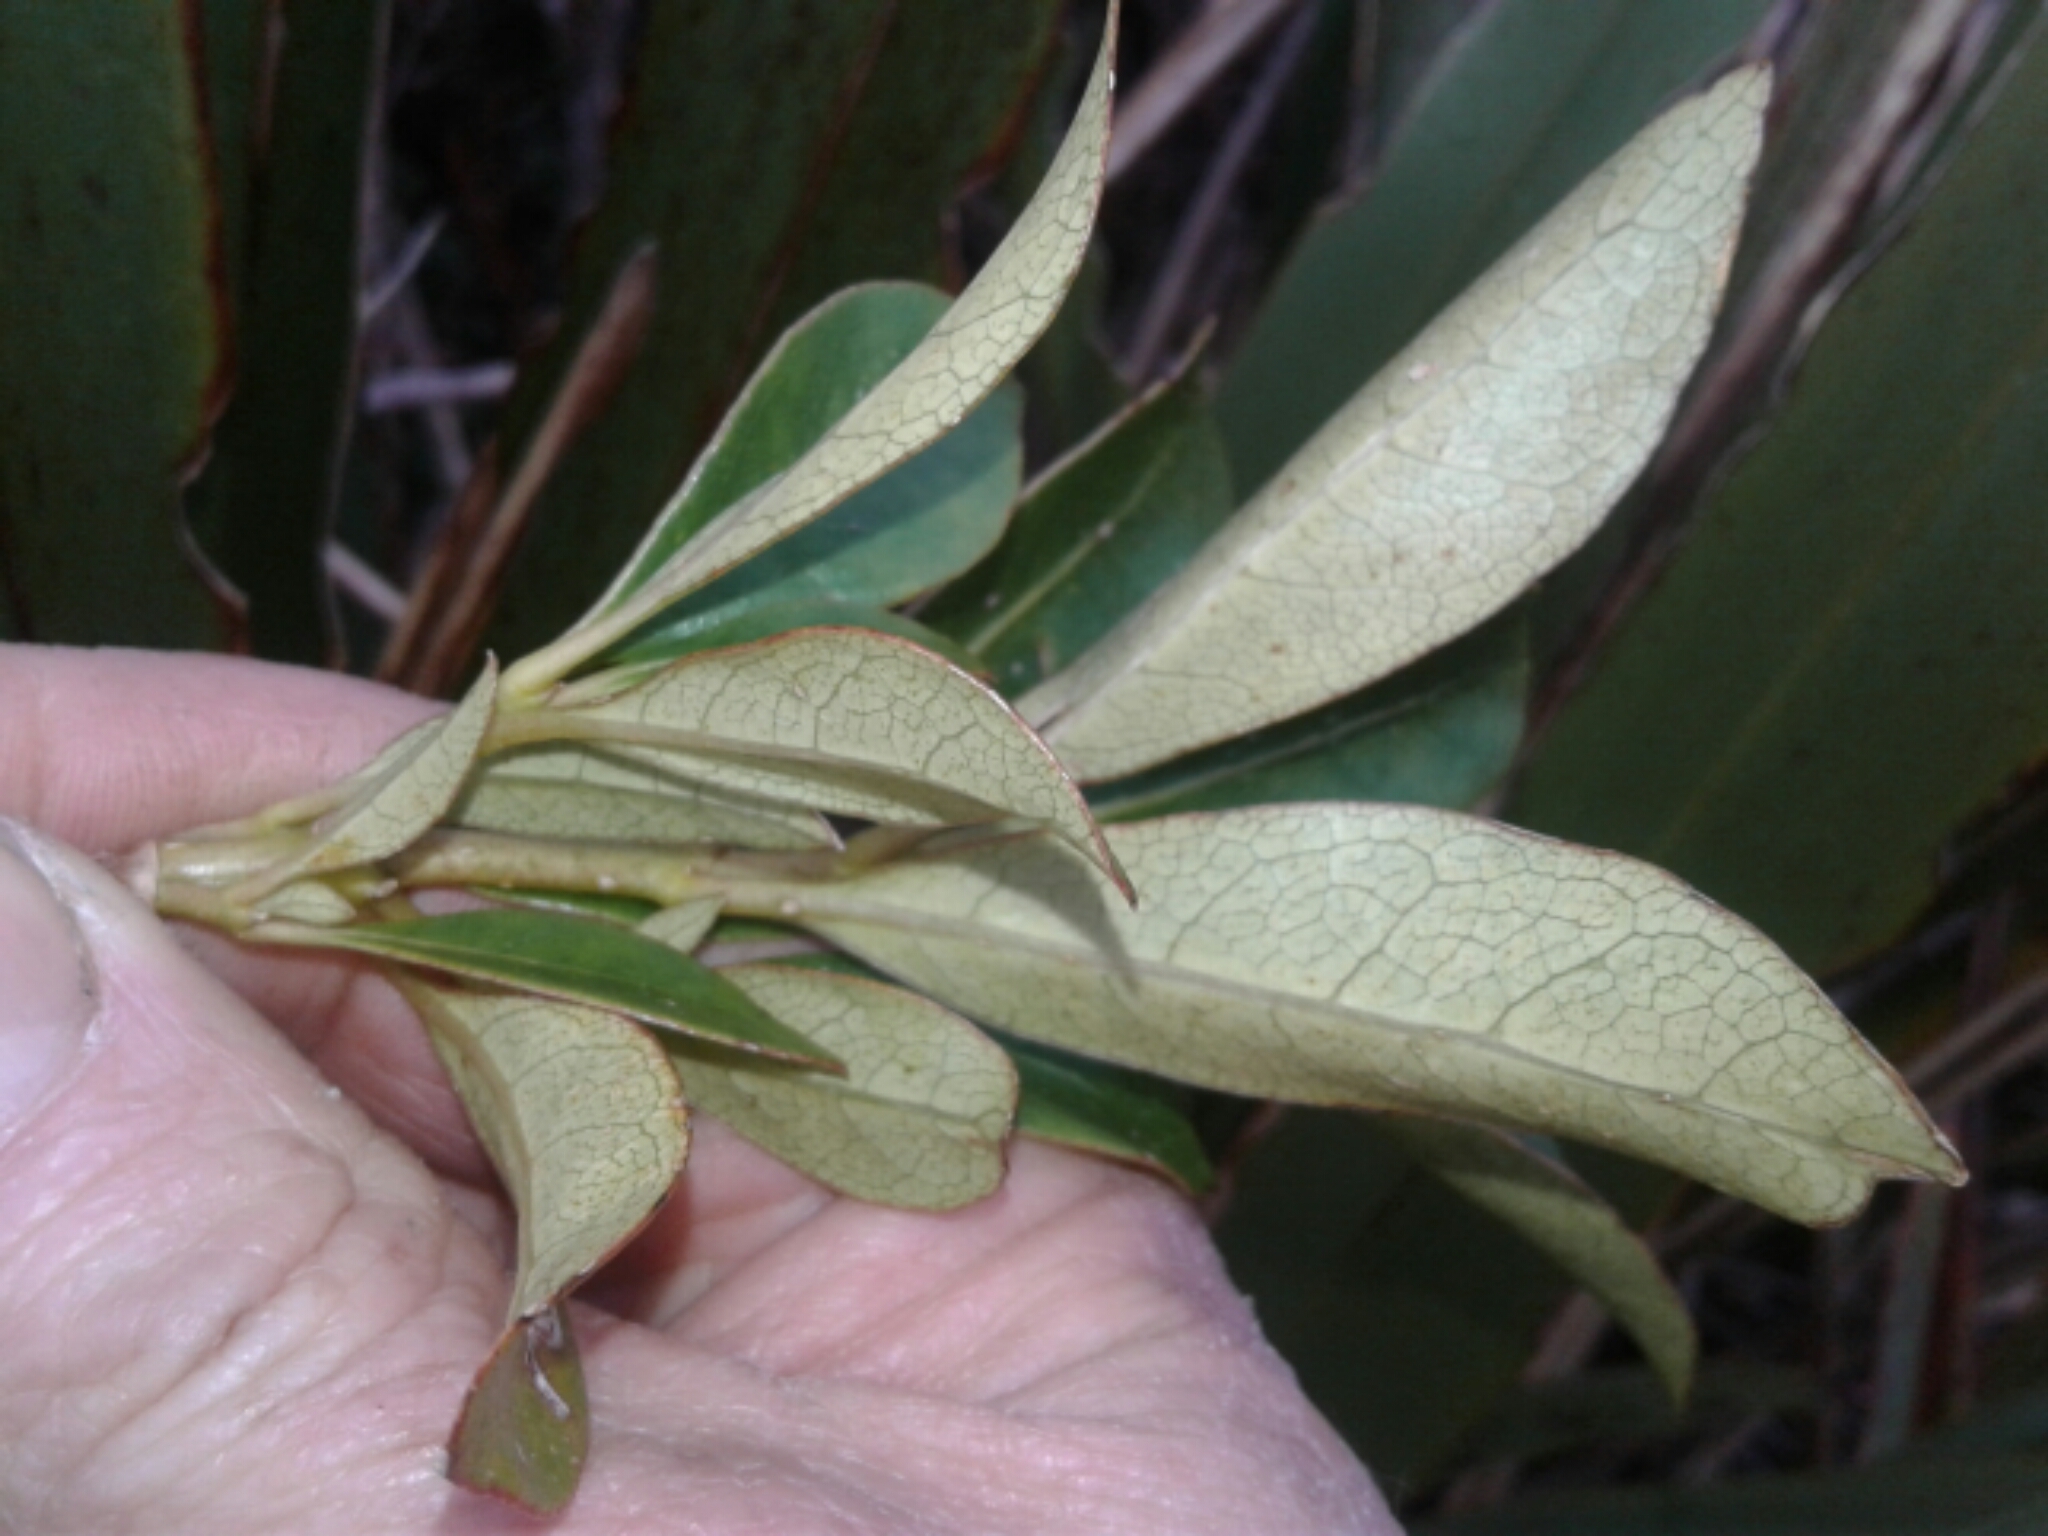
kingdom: Plantae
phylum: Tracheophyta
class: Magnoliopsida
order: Gentianales
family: Rubiaceae
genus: Coprosma
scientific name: Coprosma lucida
